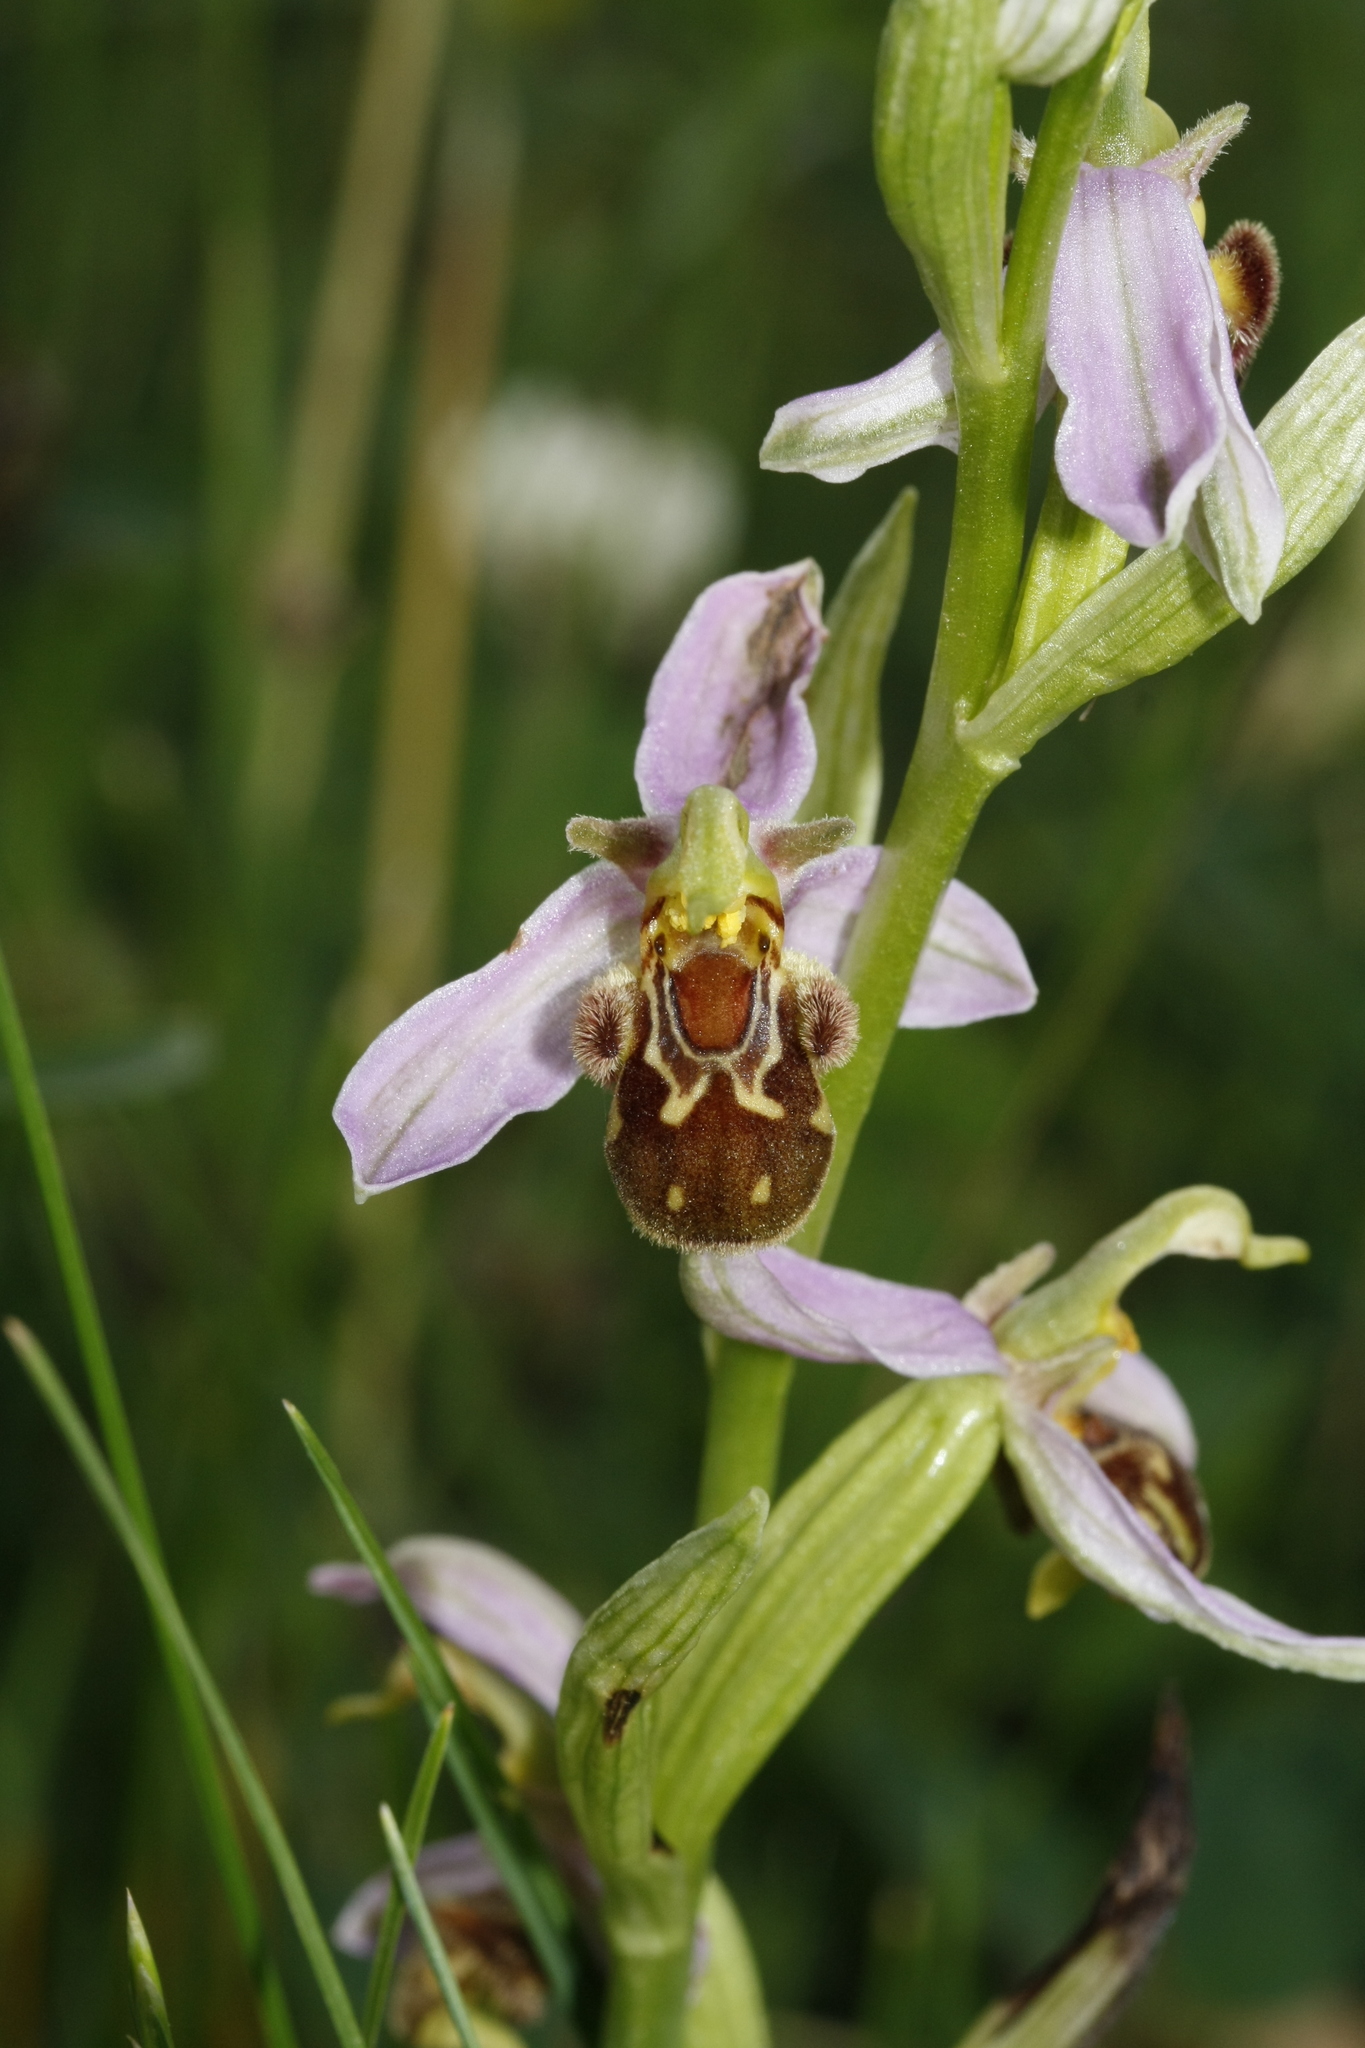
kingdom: Plantae
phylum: Tracheophyta
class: Liliopsida
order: Asparagales
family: Orchidaceae
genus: Ophrys
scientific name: Ophrys apifera
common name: Bee orchid
